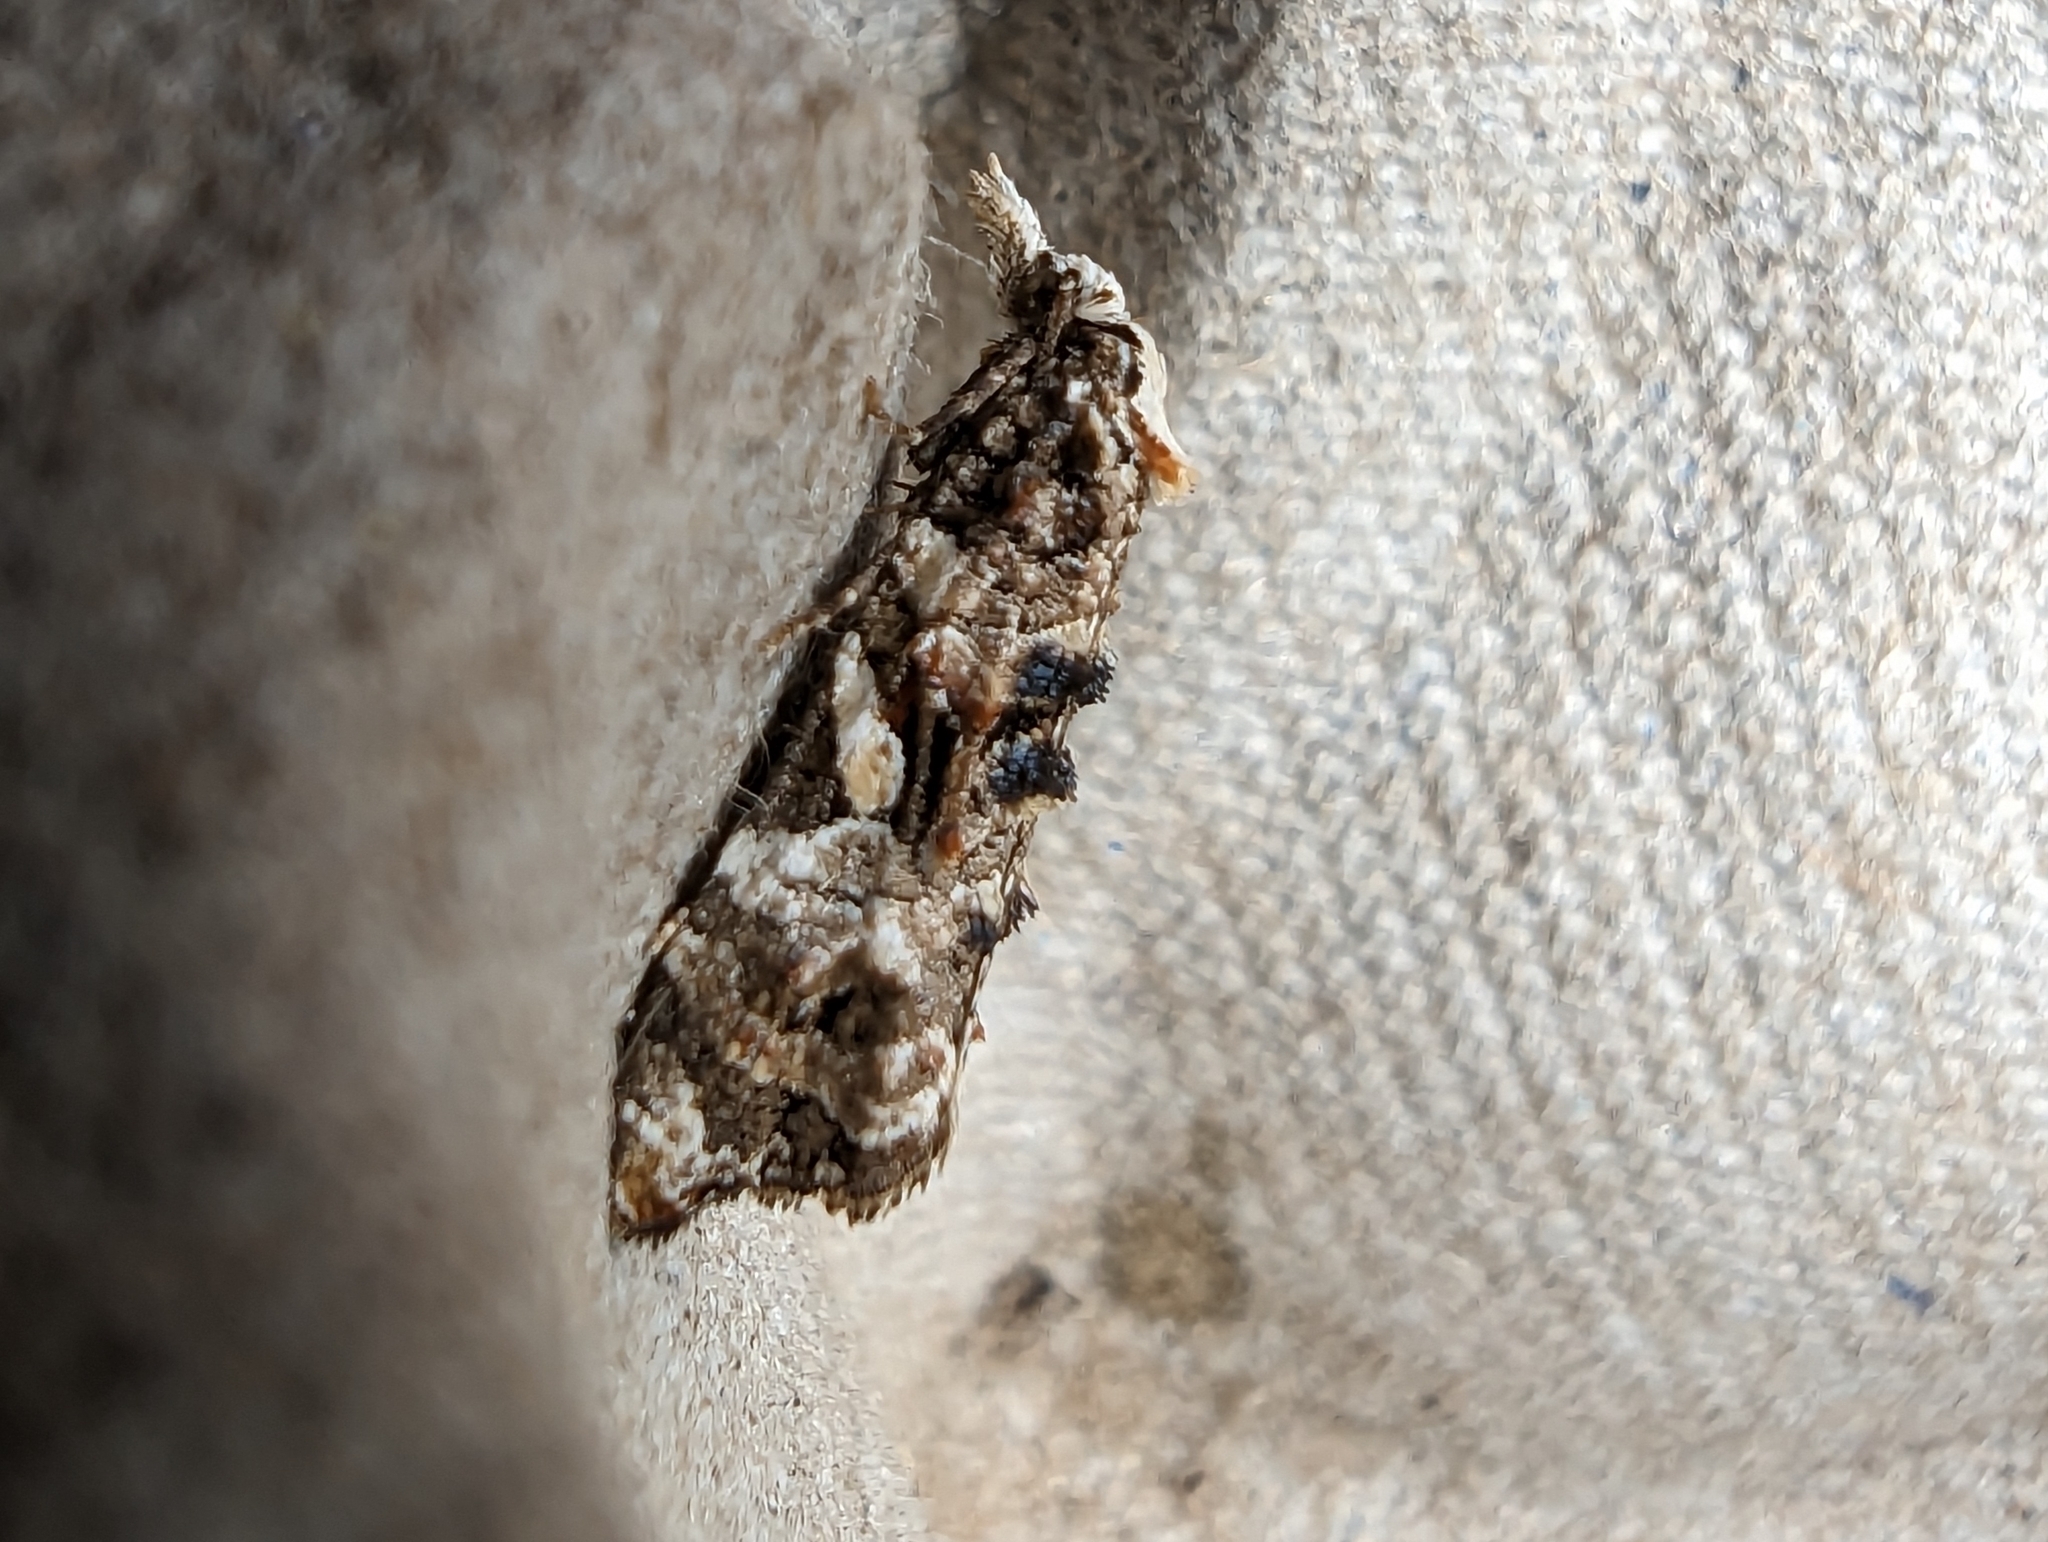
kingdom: Animalia
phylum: Arthropoda
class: Insecta
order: Lepidoptera
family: Tortricidae
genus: Phtheochroa
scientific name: Phtheochroa rugosana
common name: Rough-winged conch
